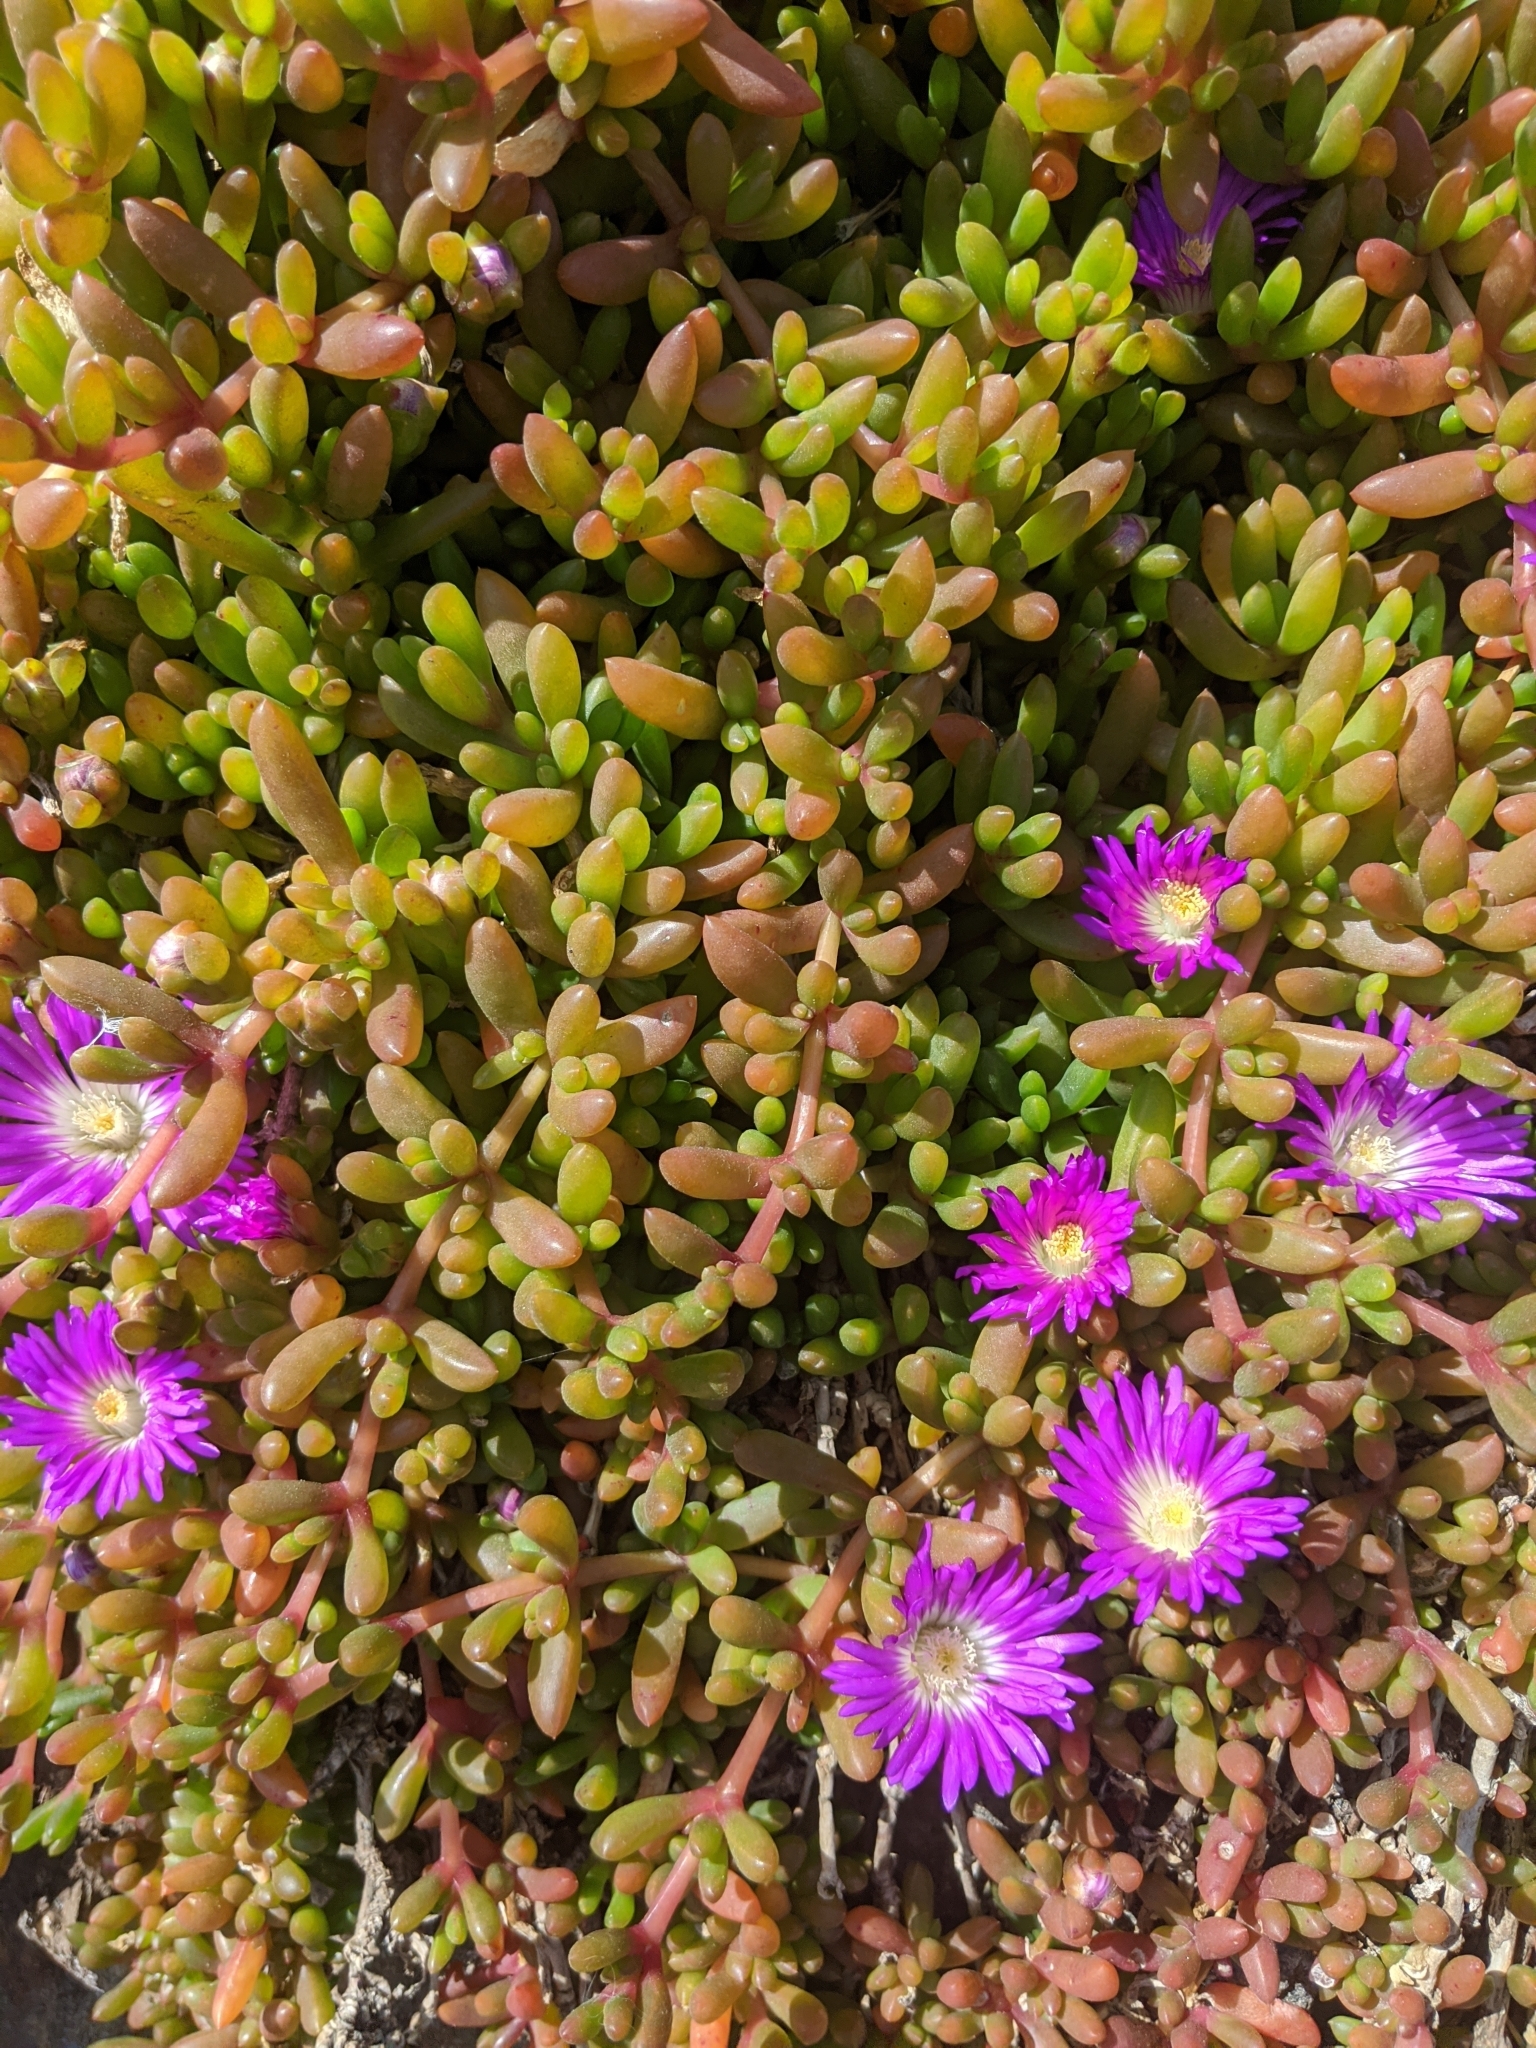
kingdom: Plantae
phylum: Tracheophyta
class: Magnoliopsida
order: Caryophyllales
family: Aizoaceae
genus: Disphyma
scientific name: Disphyma crassifolium
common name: Purple dewplant
